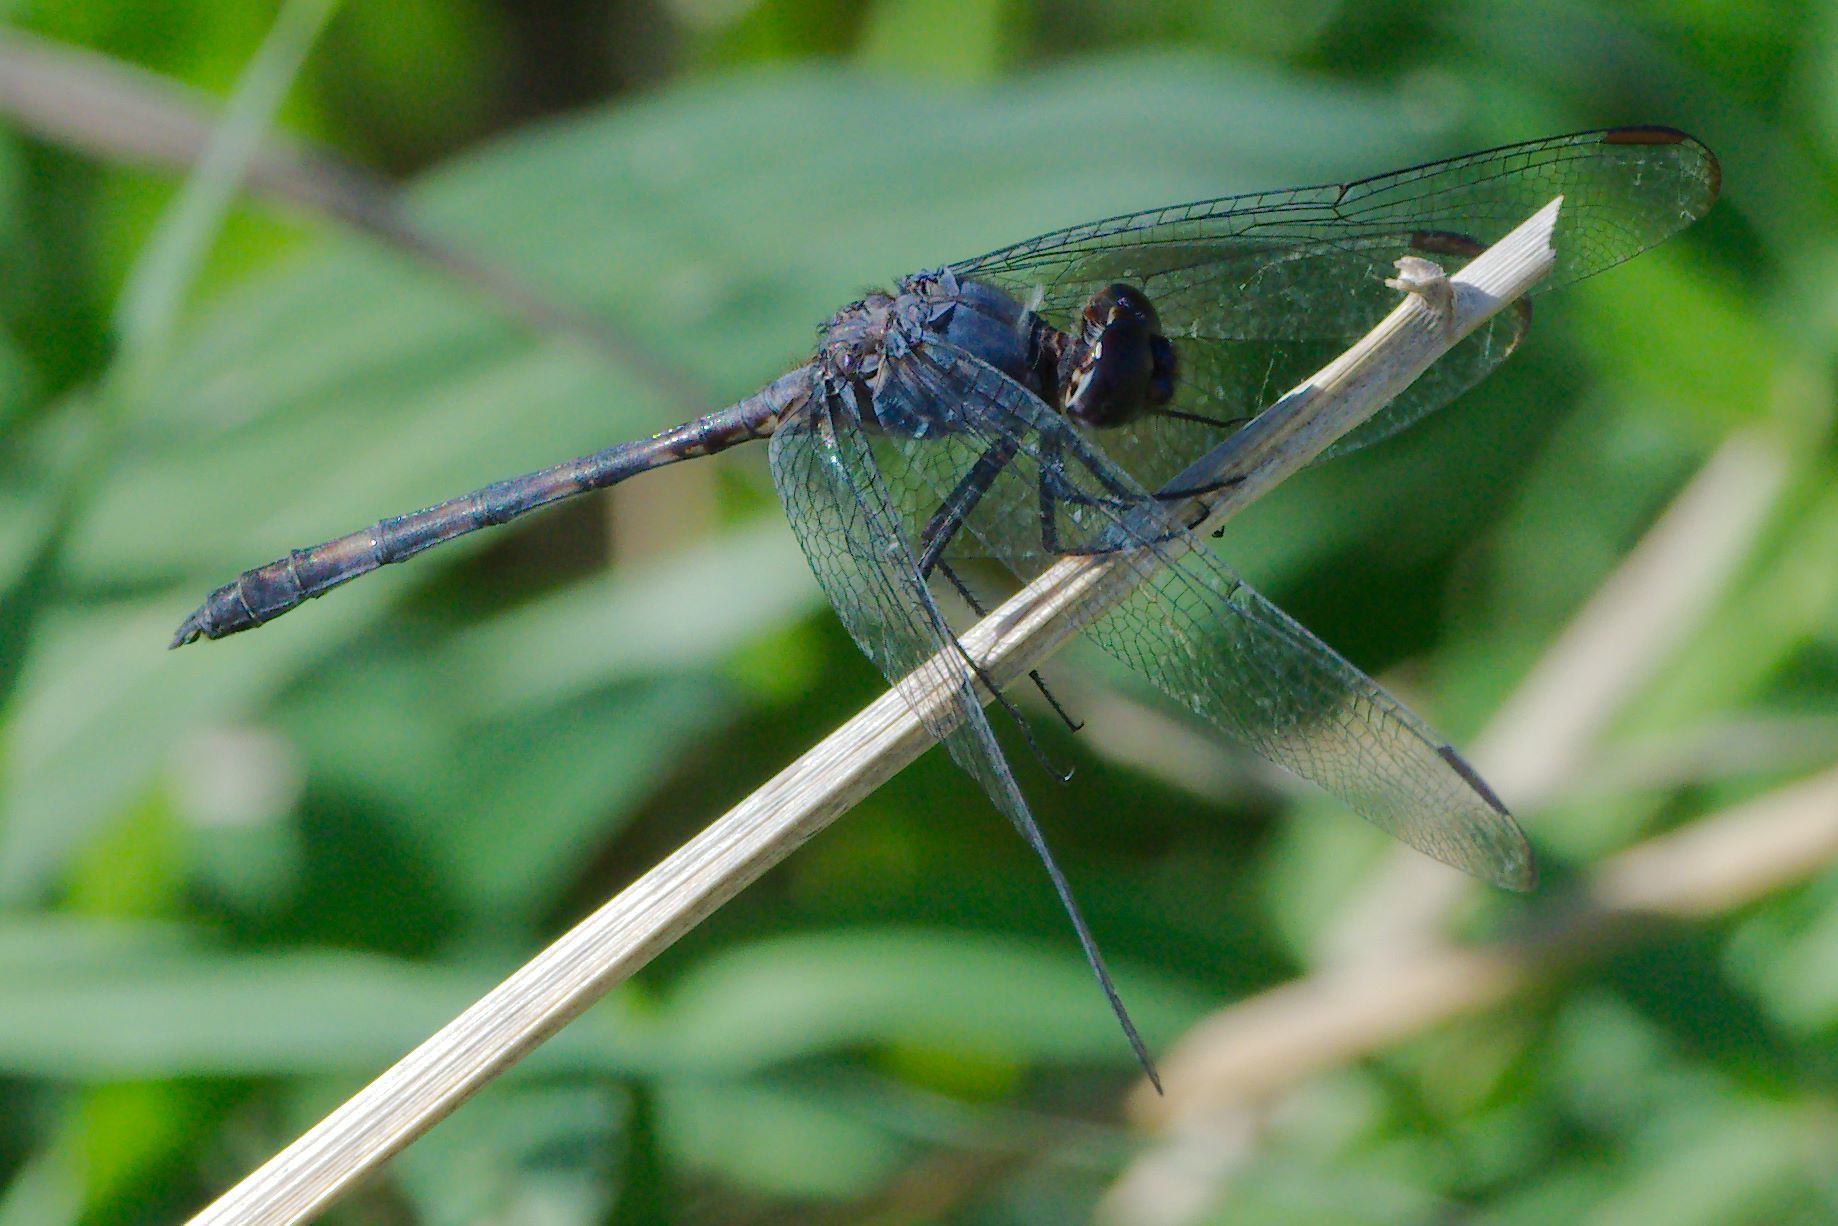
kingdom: Animalia
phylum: Arthropoda
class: Insecta
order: Odonata
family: Libellulidae
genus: Dythemis
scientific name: Dythemis nigrescens
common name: Black setwing
